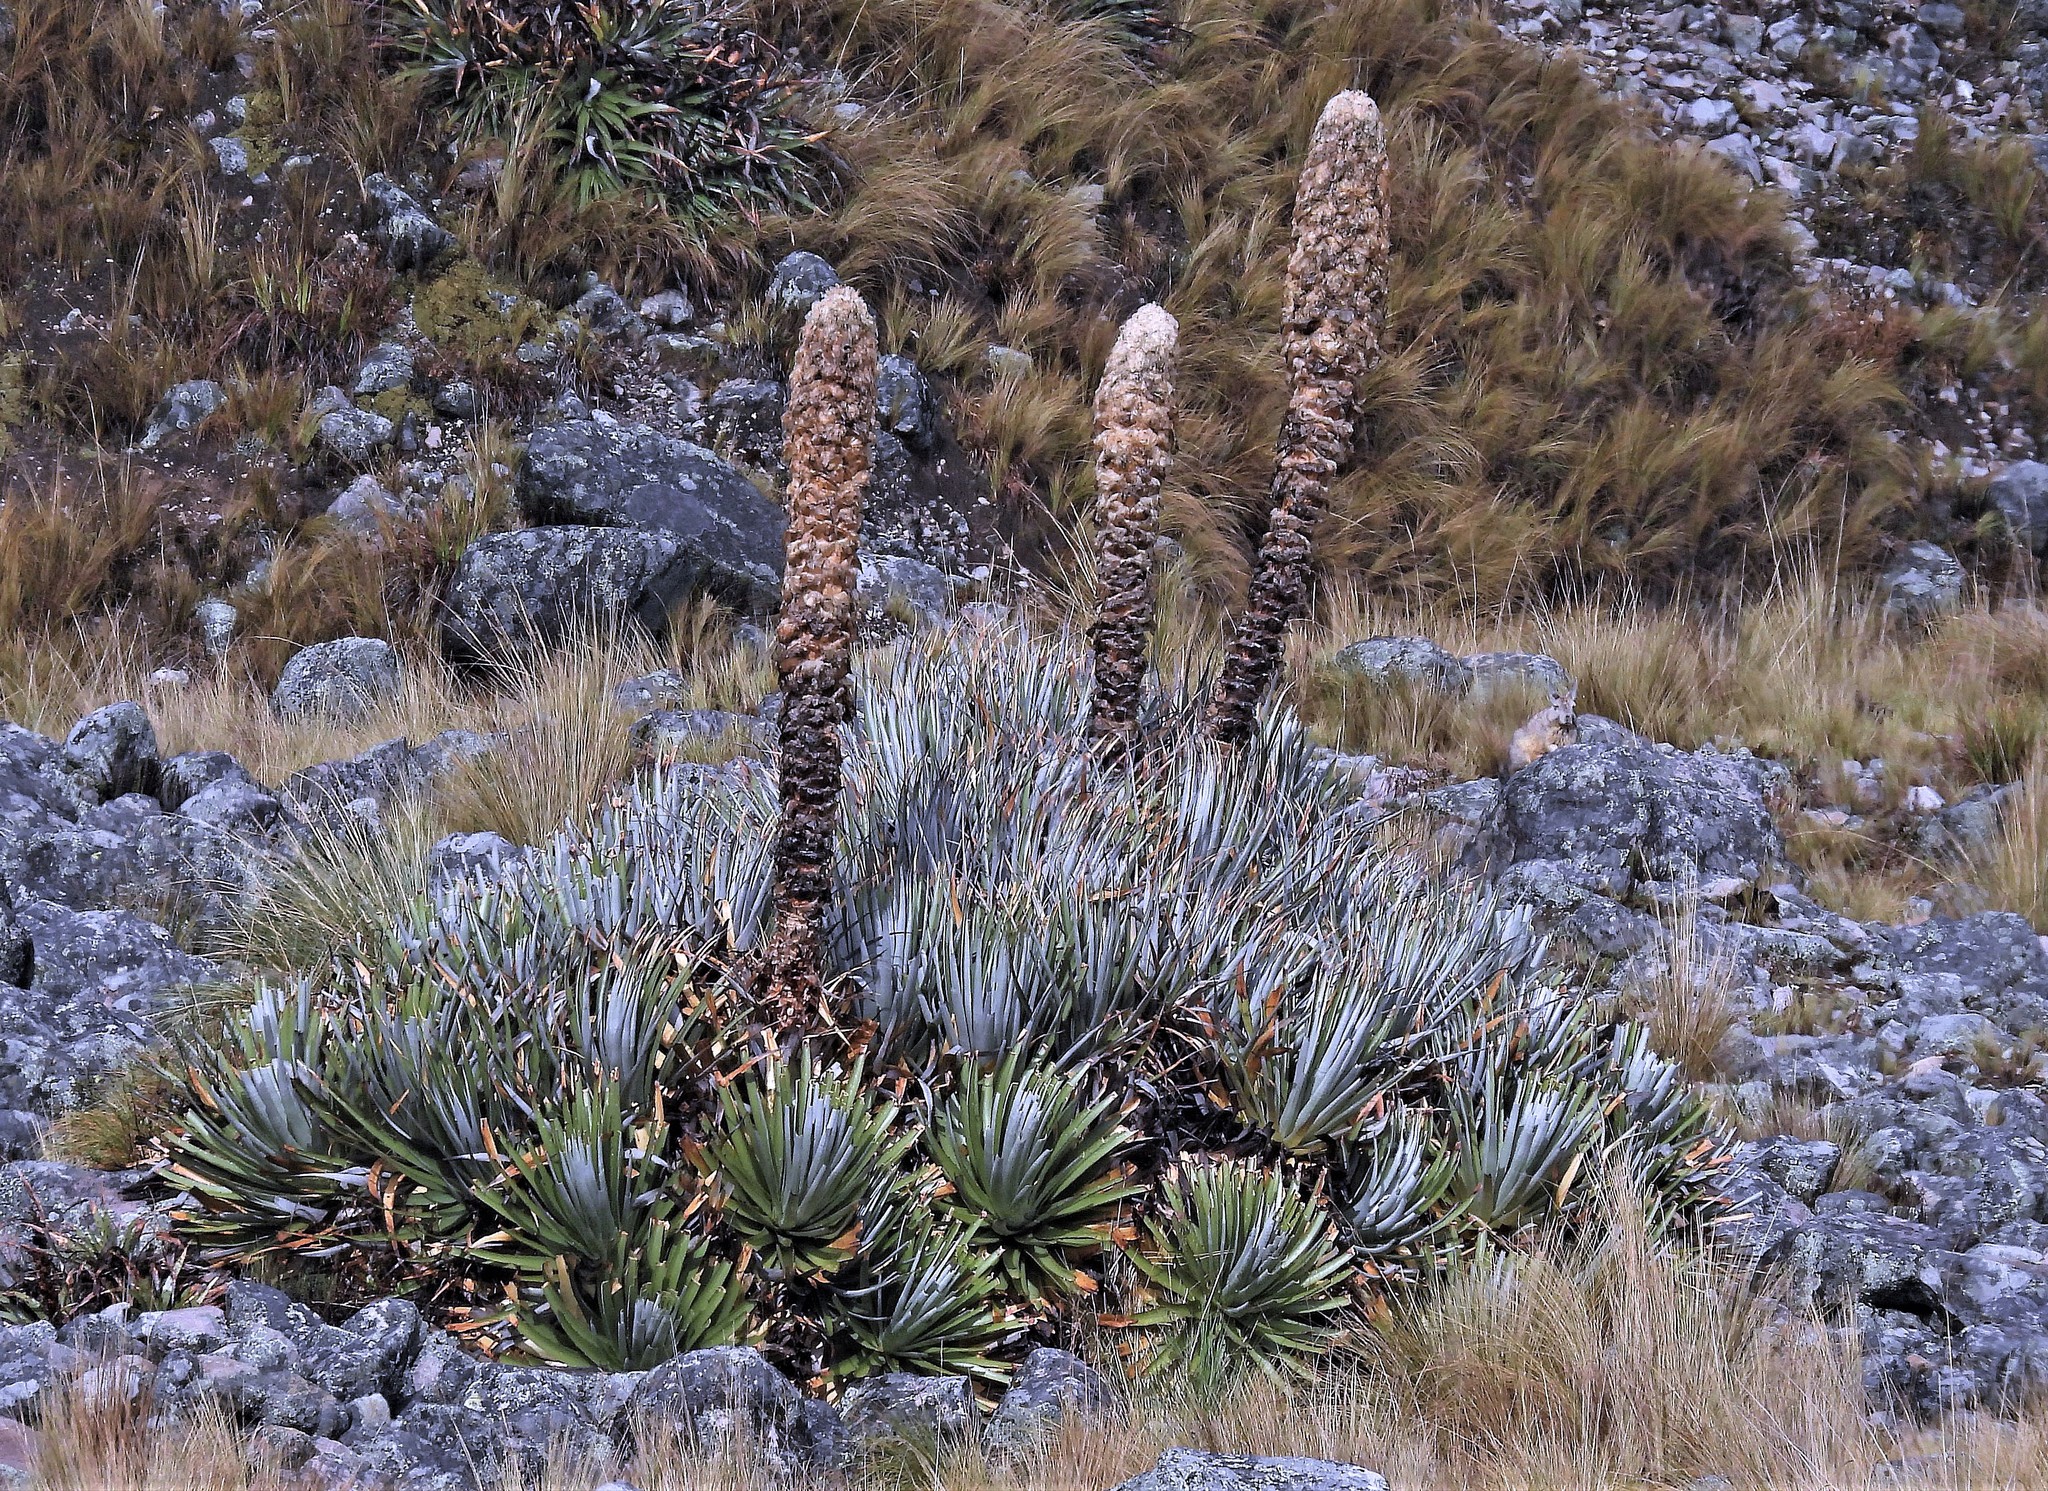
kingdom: Plantae
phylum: Tracheophyta
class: Liliopsida
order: Poales
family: Bromeliaceae
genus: Puya
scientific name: Puya yakespala
